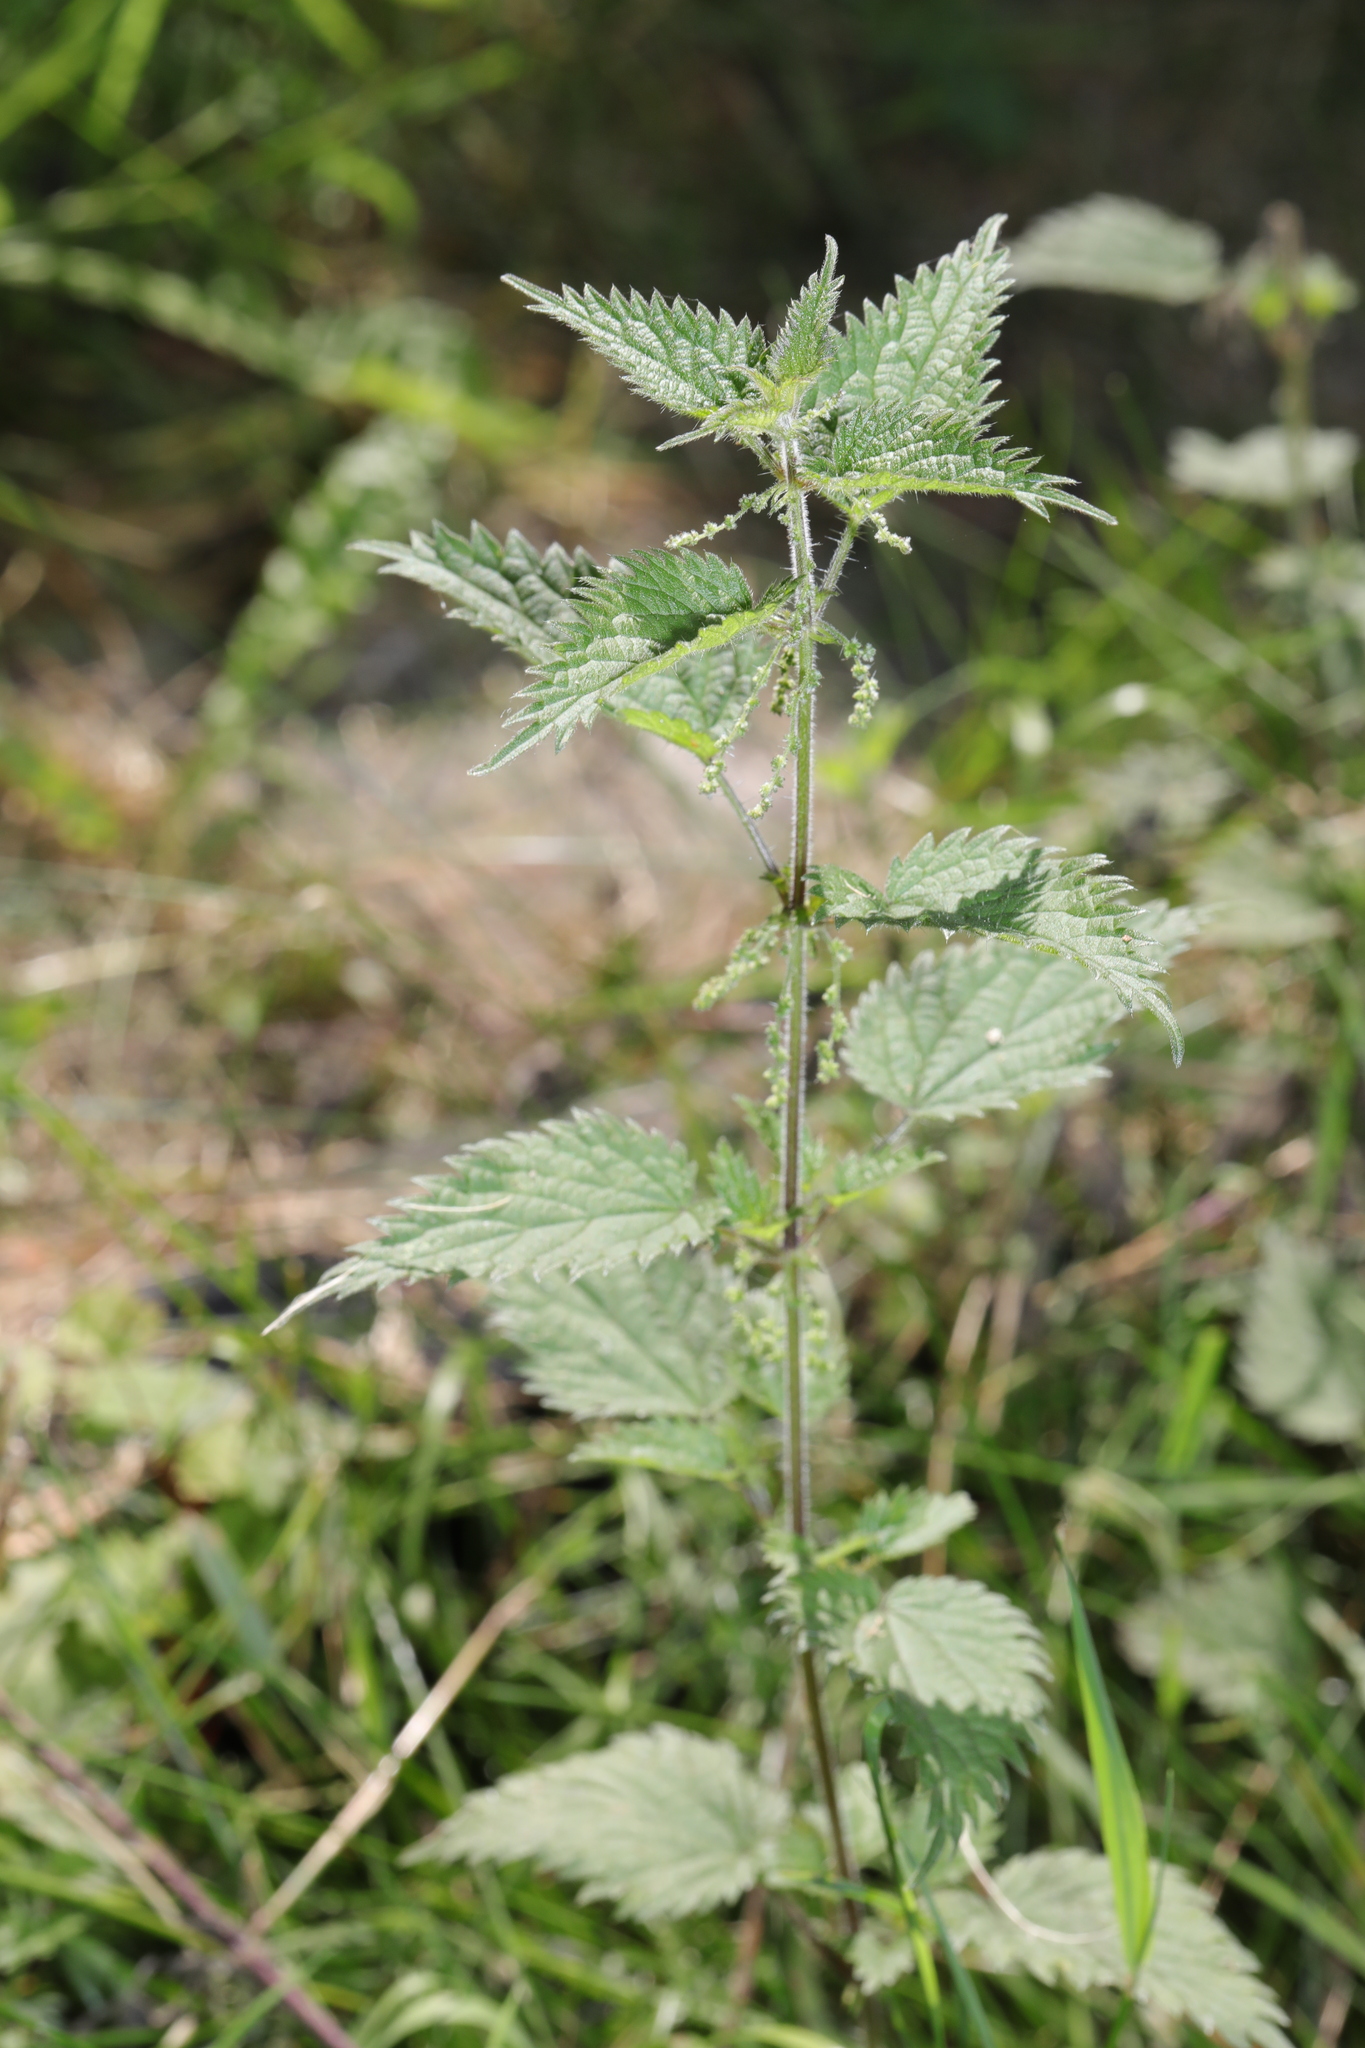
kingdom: Plantae
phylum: Tracheophyta
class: Magnoliopsida
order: Rosales
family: Urticaceae
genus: Urtica
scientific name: Urtica dioica
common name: Common nettle
